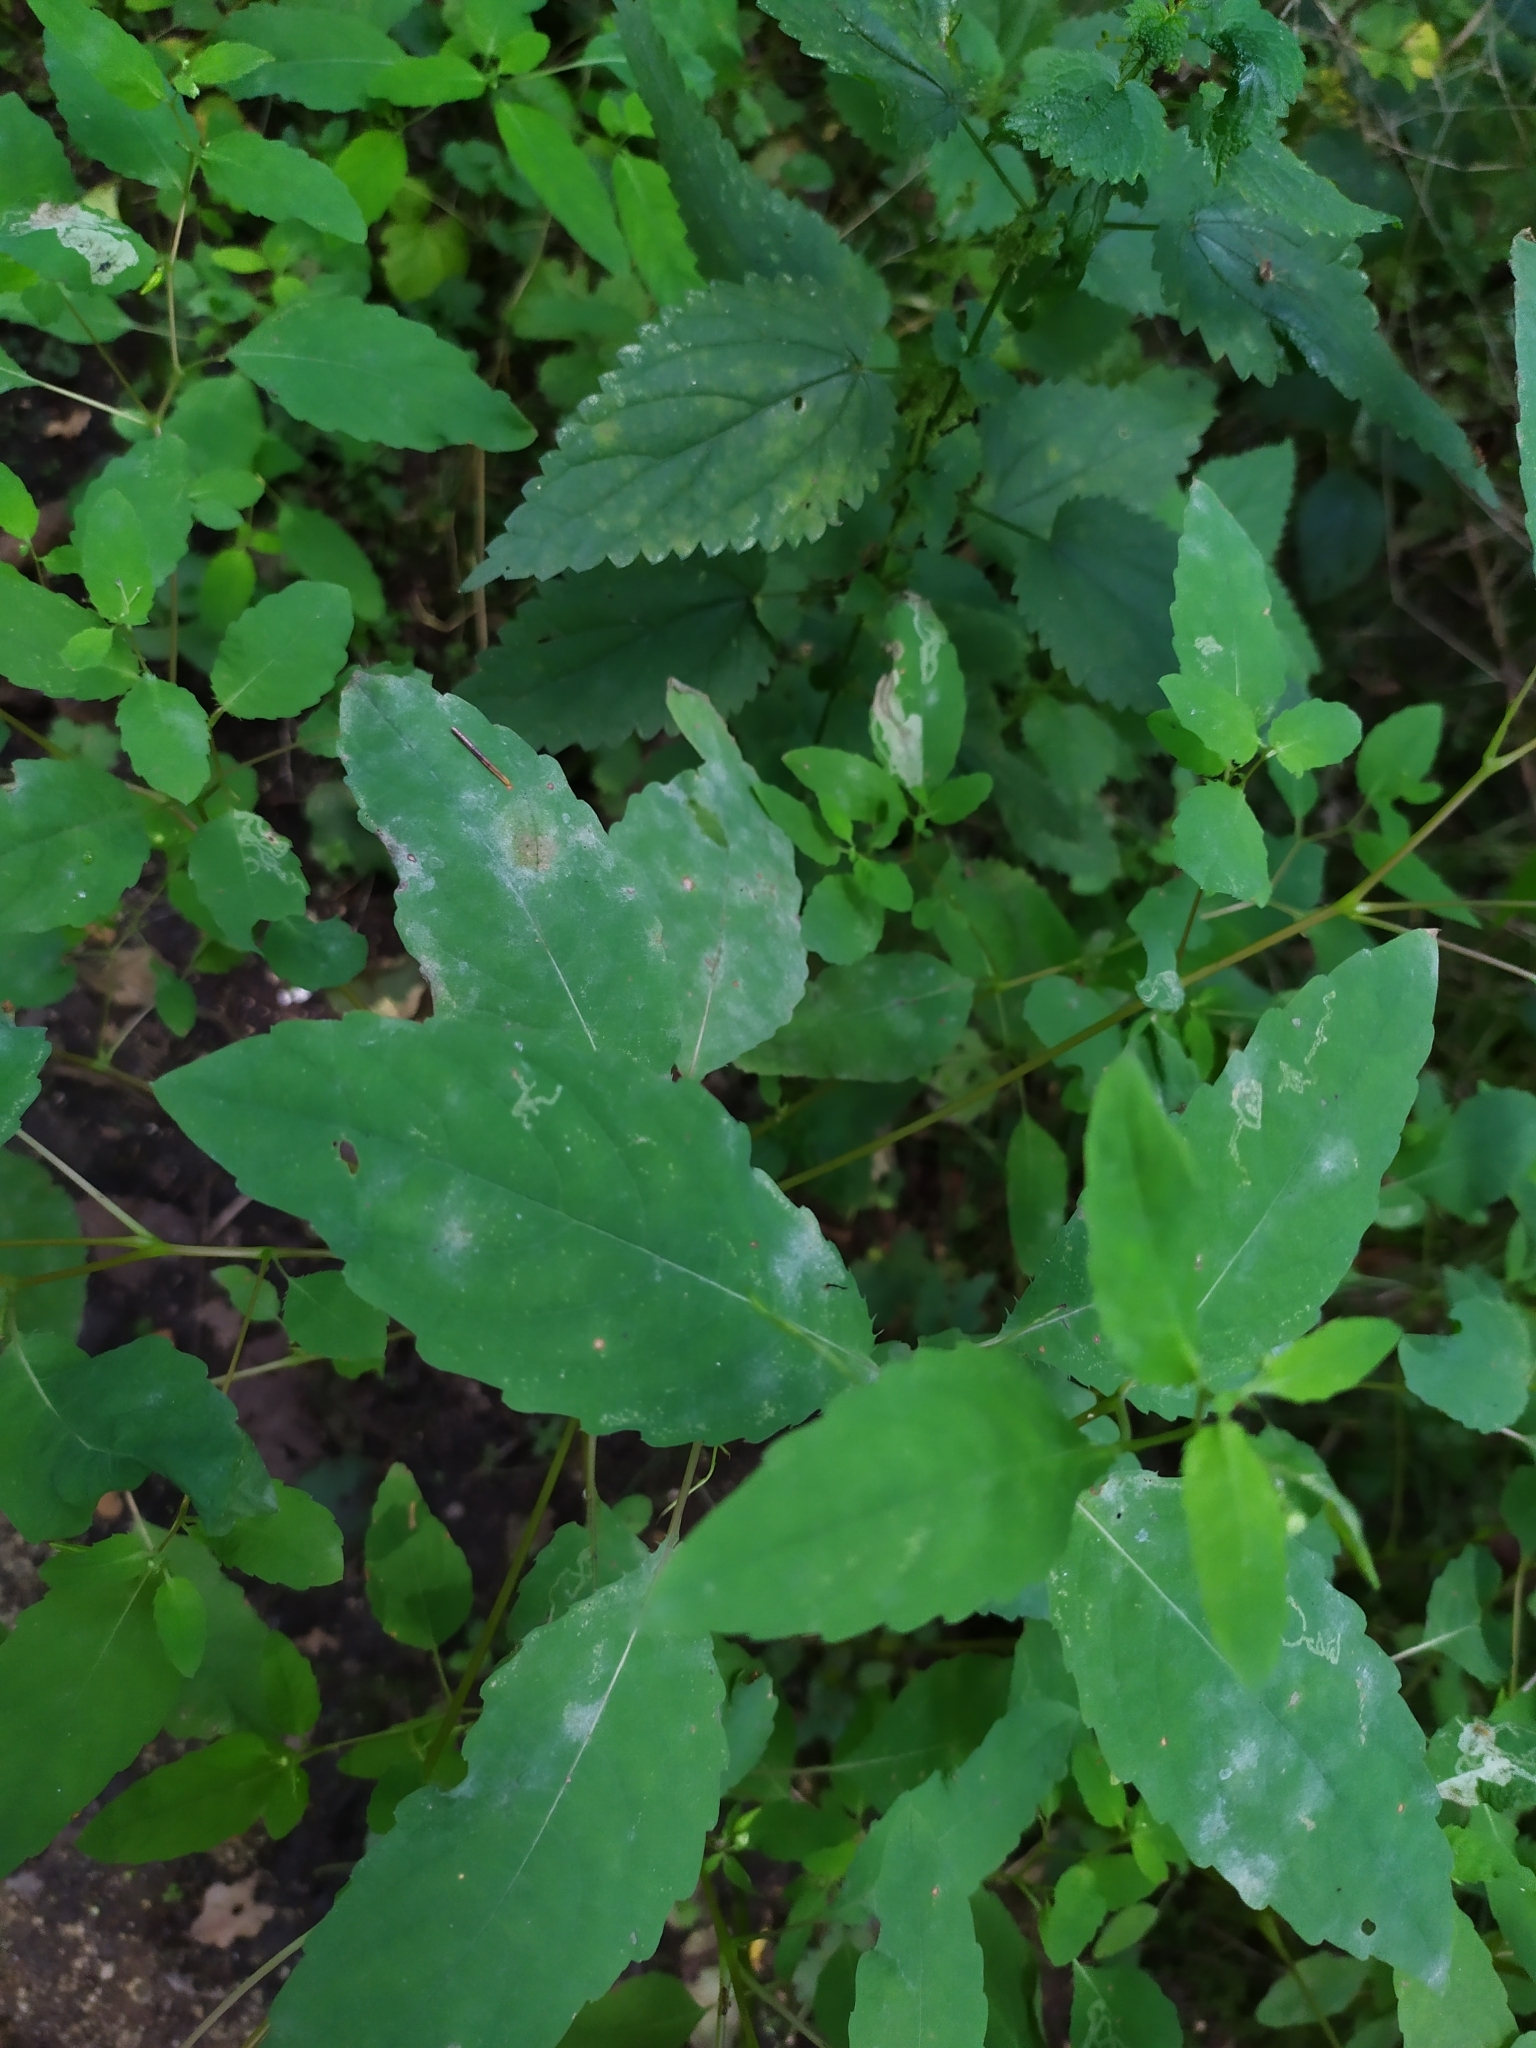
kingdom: Fungi
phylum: Ascomycota
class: Leotiomycetes
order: Helotiales
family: Erysiphaceae
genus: Podosphaera
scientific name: Podosphaera balsaminae
